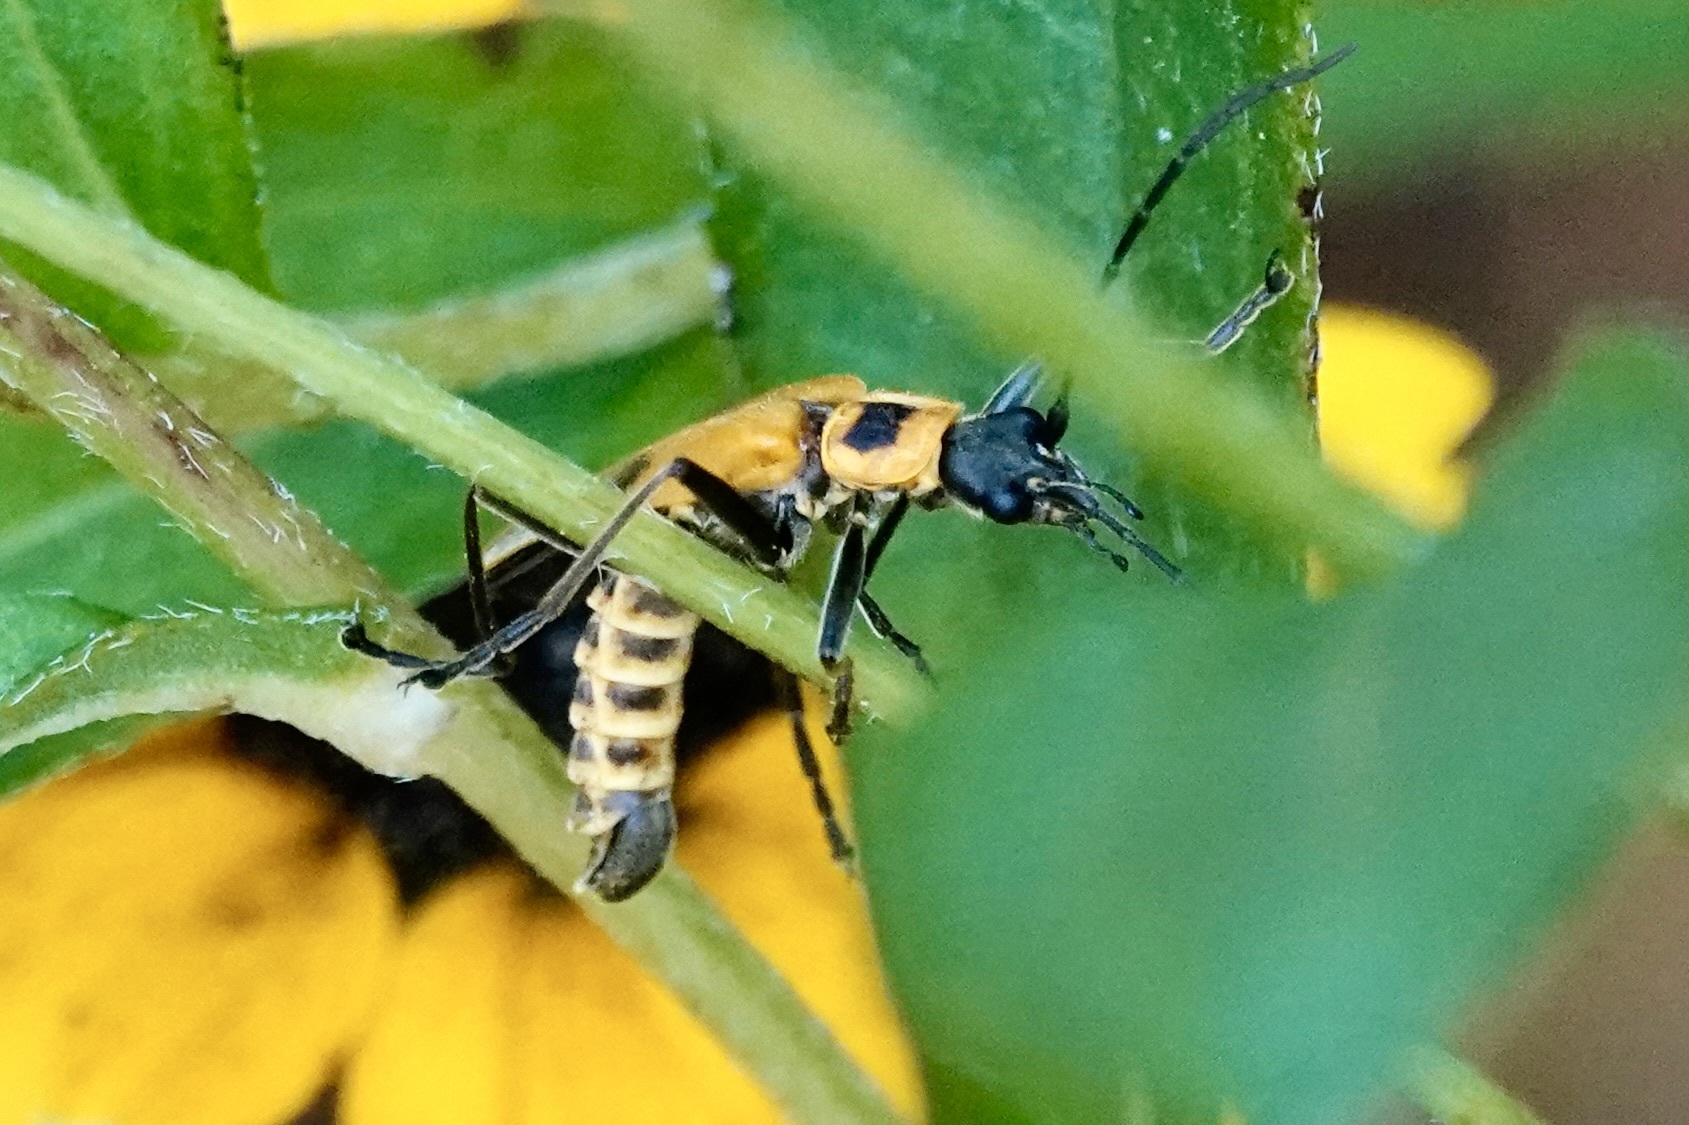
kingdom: Animalia
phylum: Arthropoda
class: Insecta
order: Coleoptera
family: Cantharidae
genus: Chauliognathus
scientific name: Chauliognathus pensylvanicus
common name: Goldenrod soldier beetle
